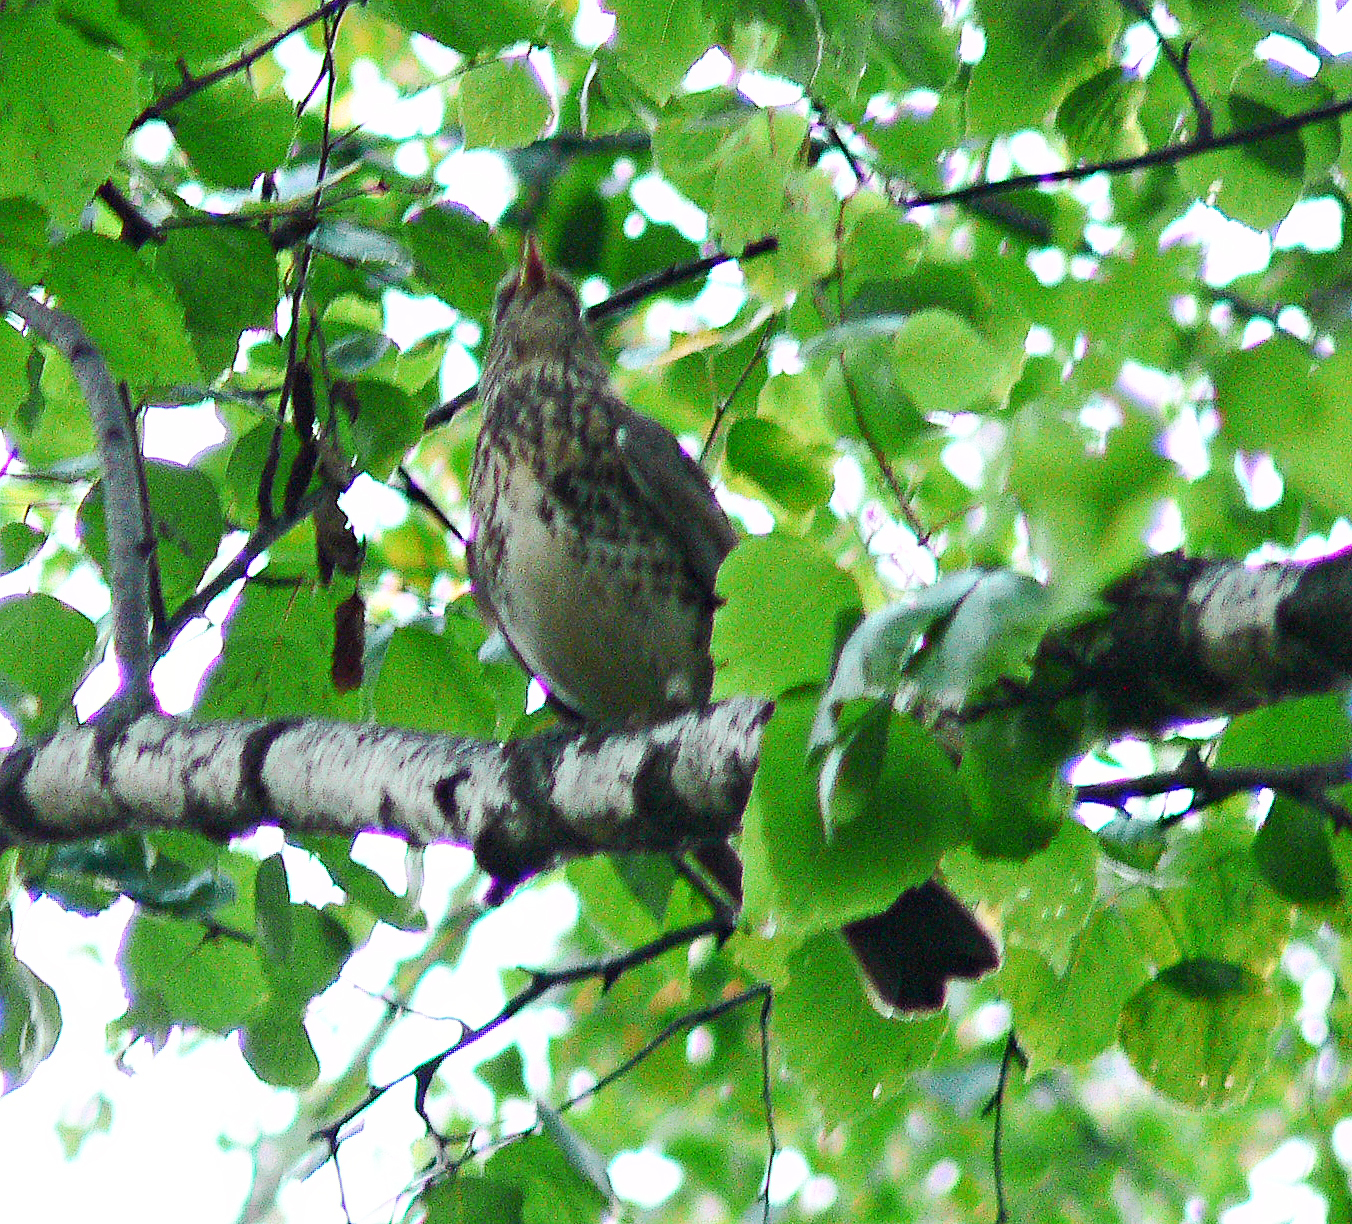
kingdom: Animalia
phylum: Chordata
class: Aves
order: Passeriformes
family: Turdidae
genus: Turdus
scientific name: Turdus pilaris
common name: Fieldfare
